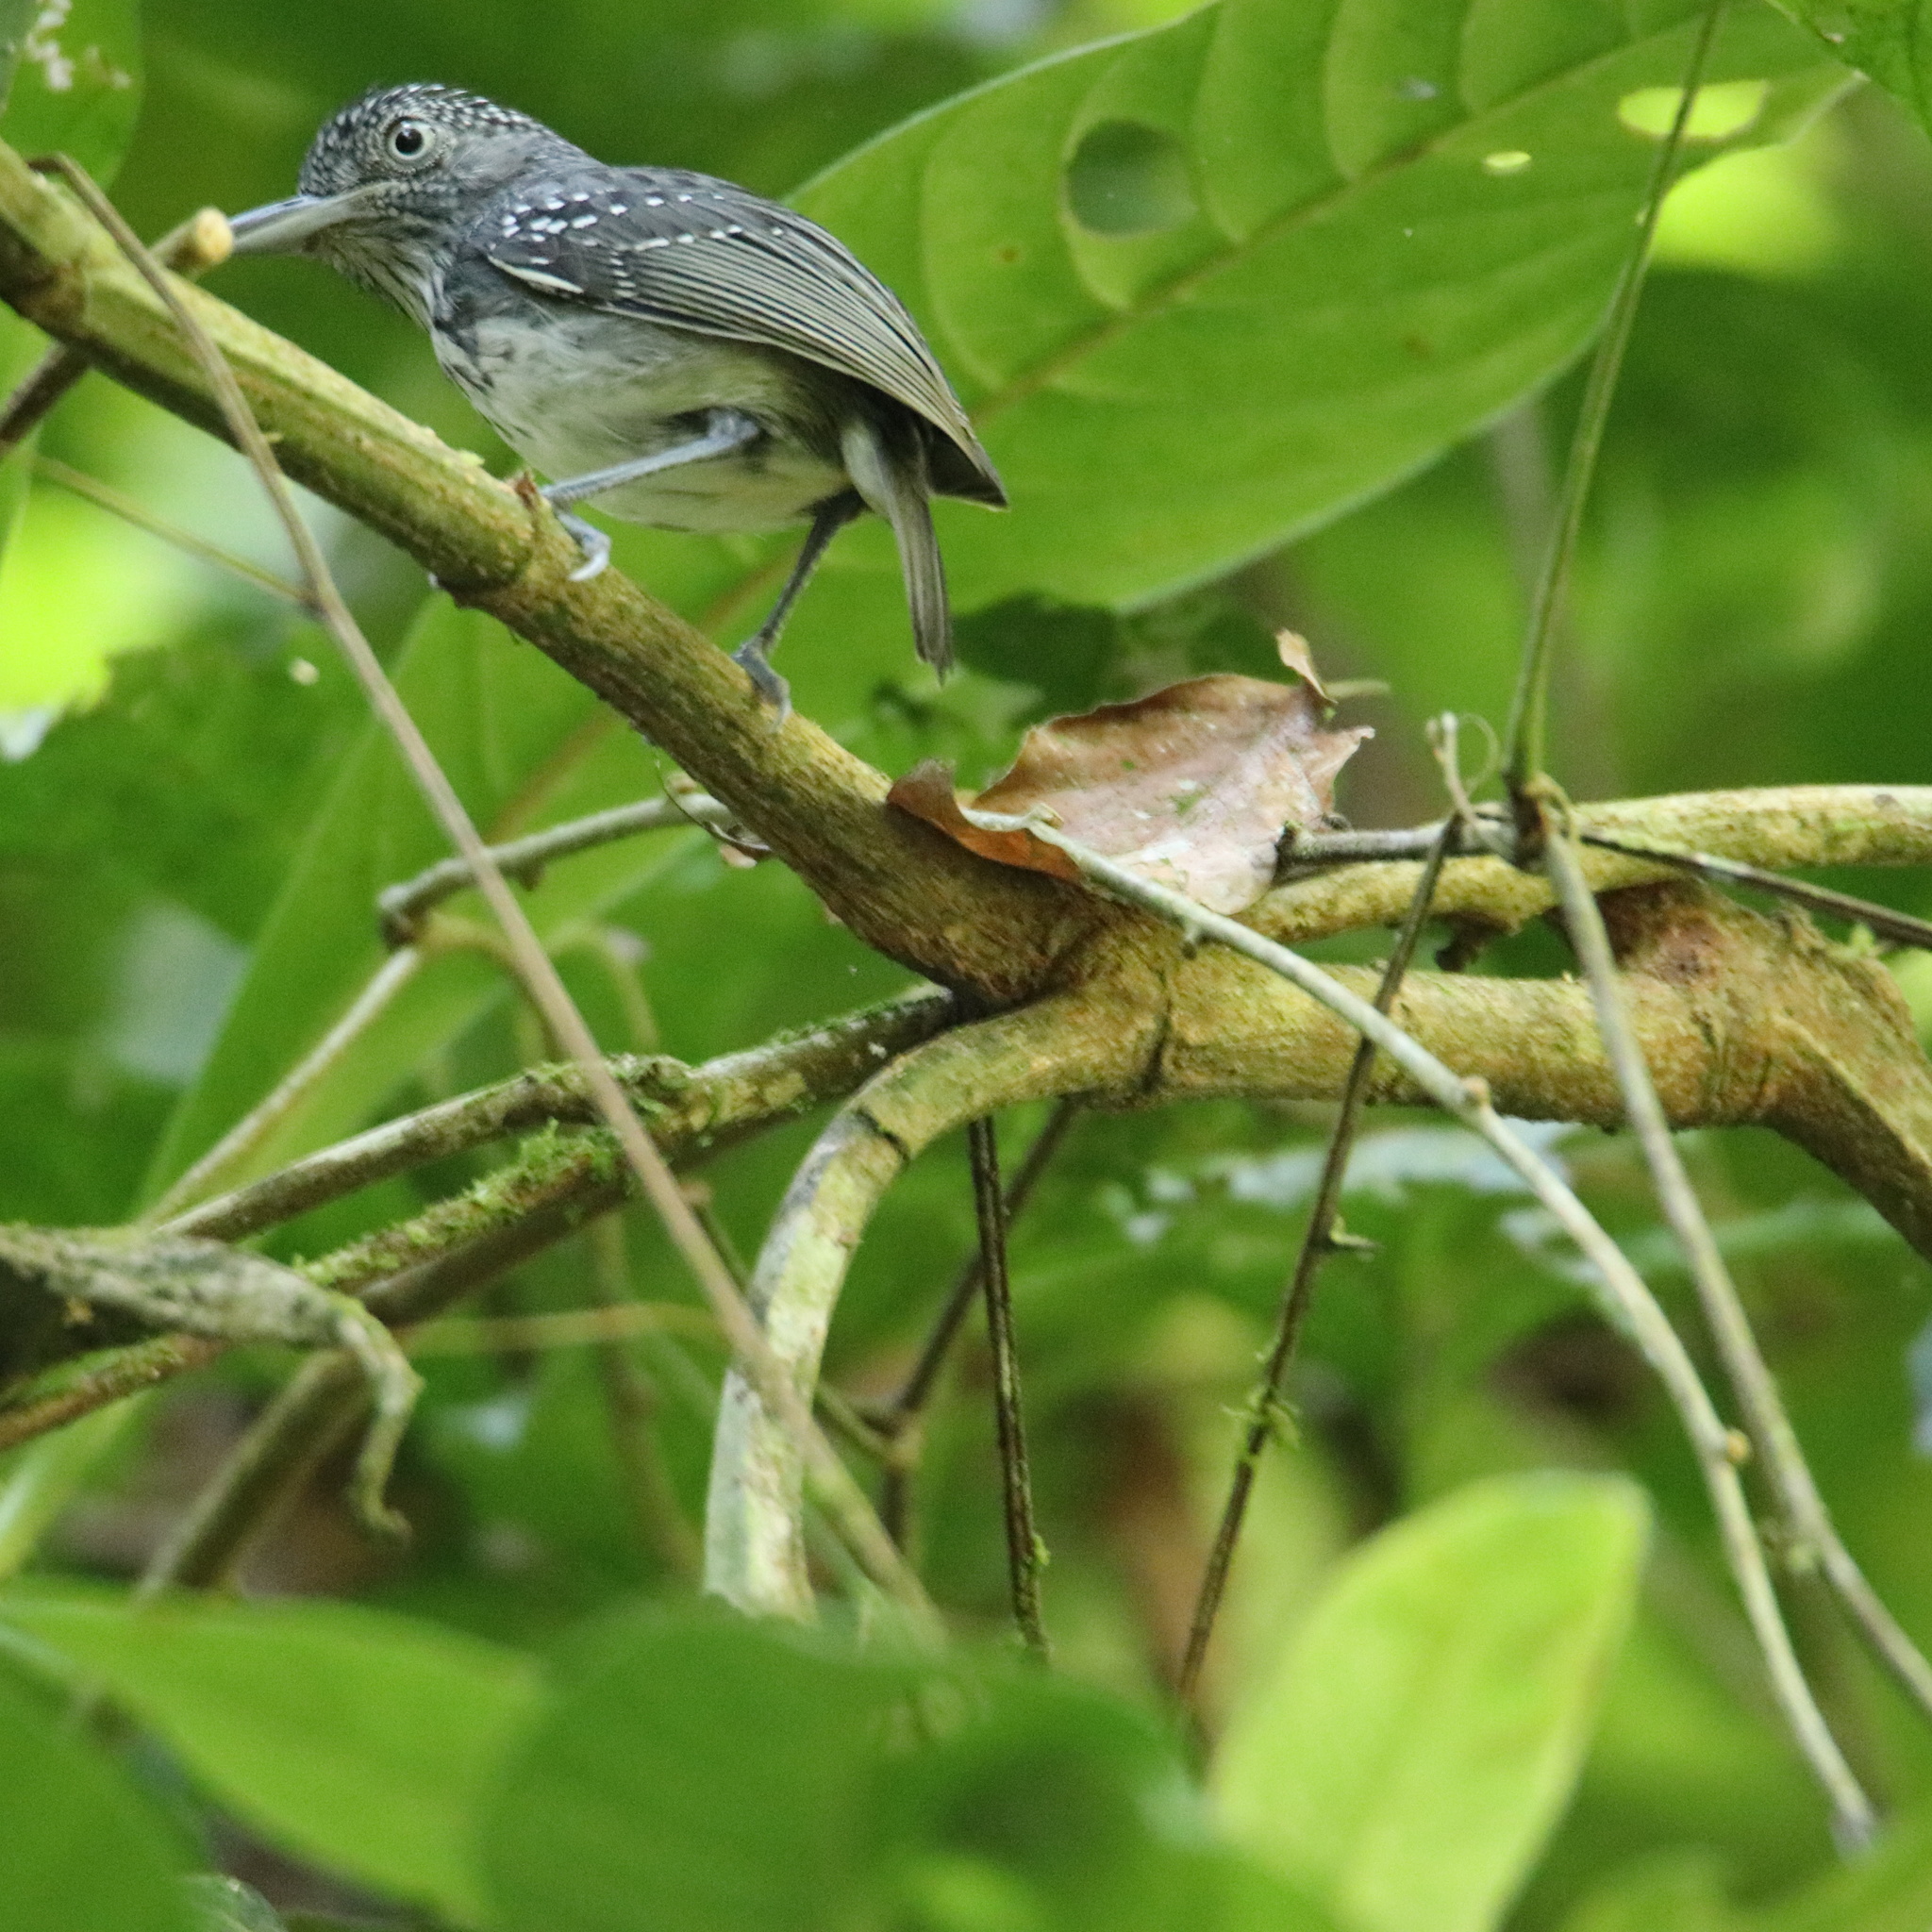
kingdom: Animalia
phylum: Chordata
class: Aves
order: Passeriformes
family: Thamnophilidae
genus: Dysithamnus
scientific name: Dysithamnus puncticeps
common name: Spot-crowned antvireo
